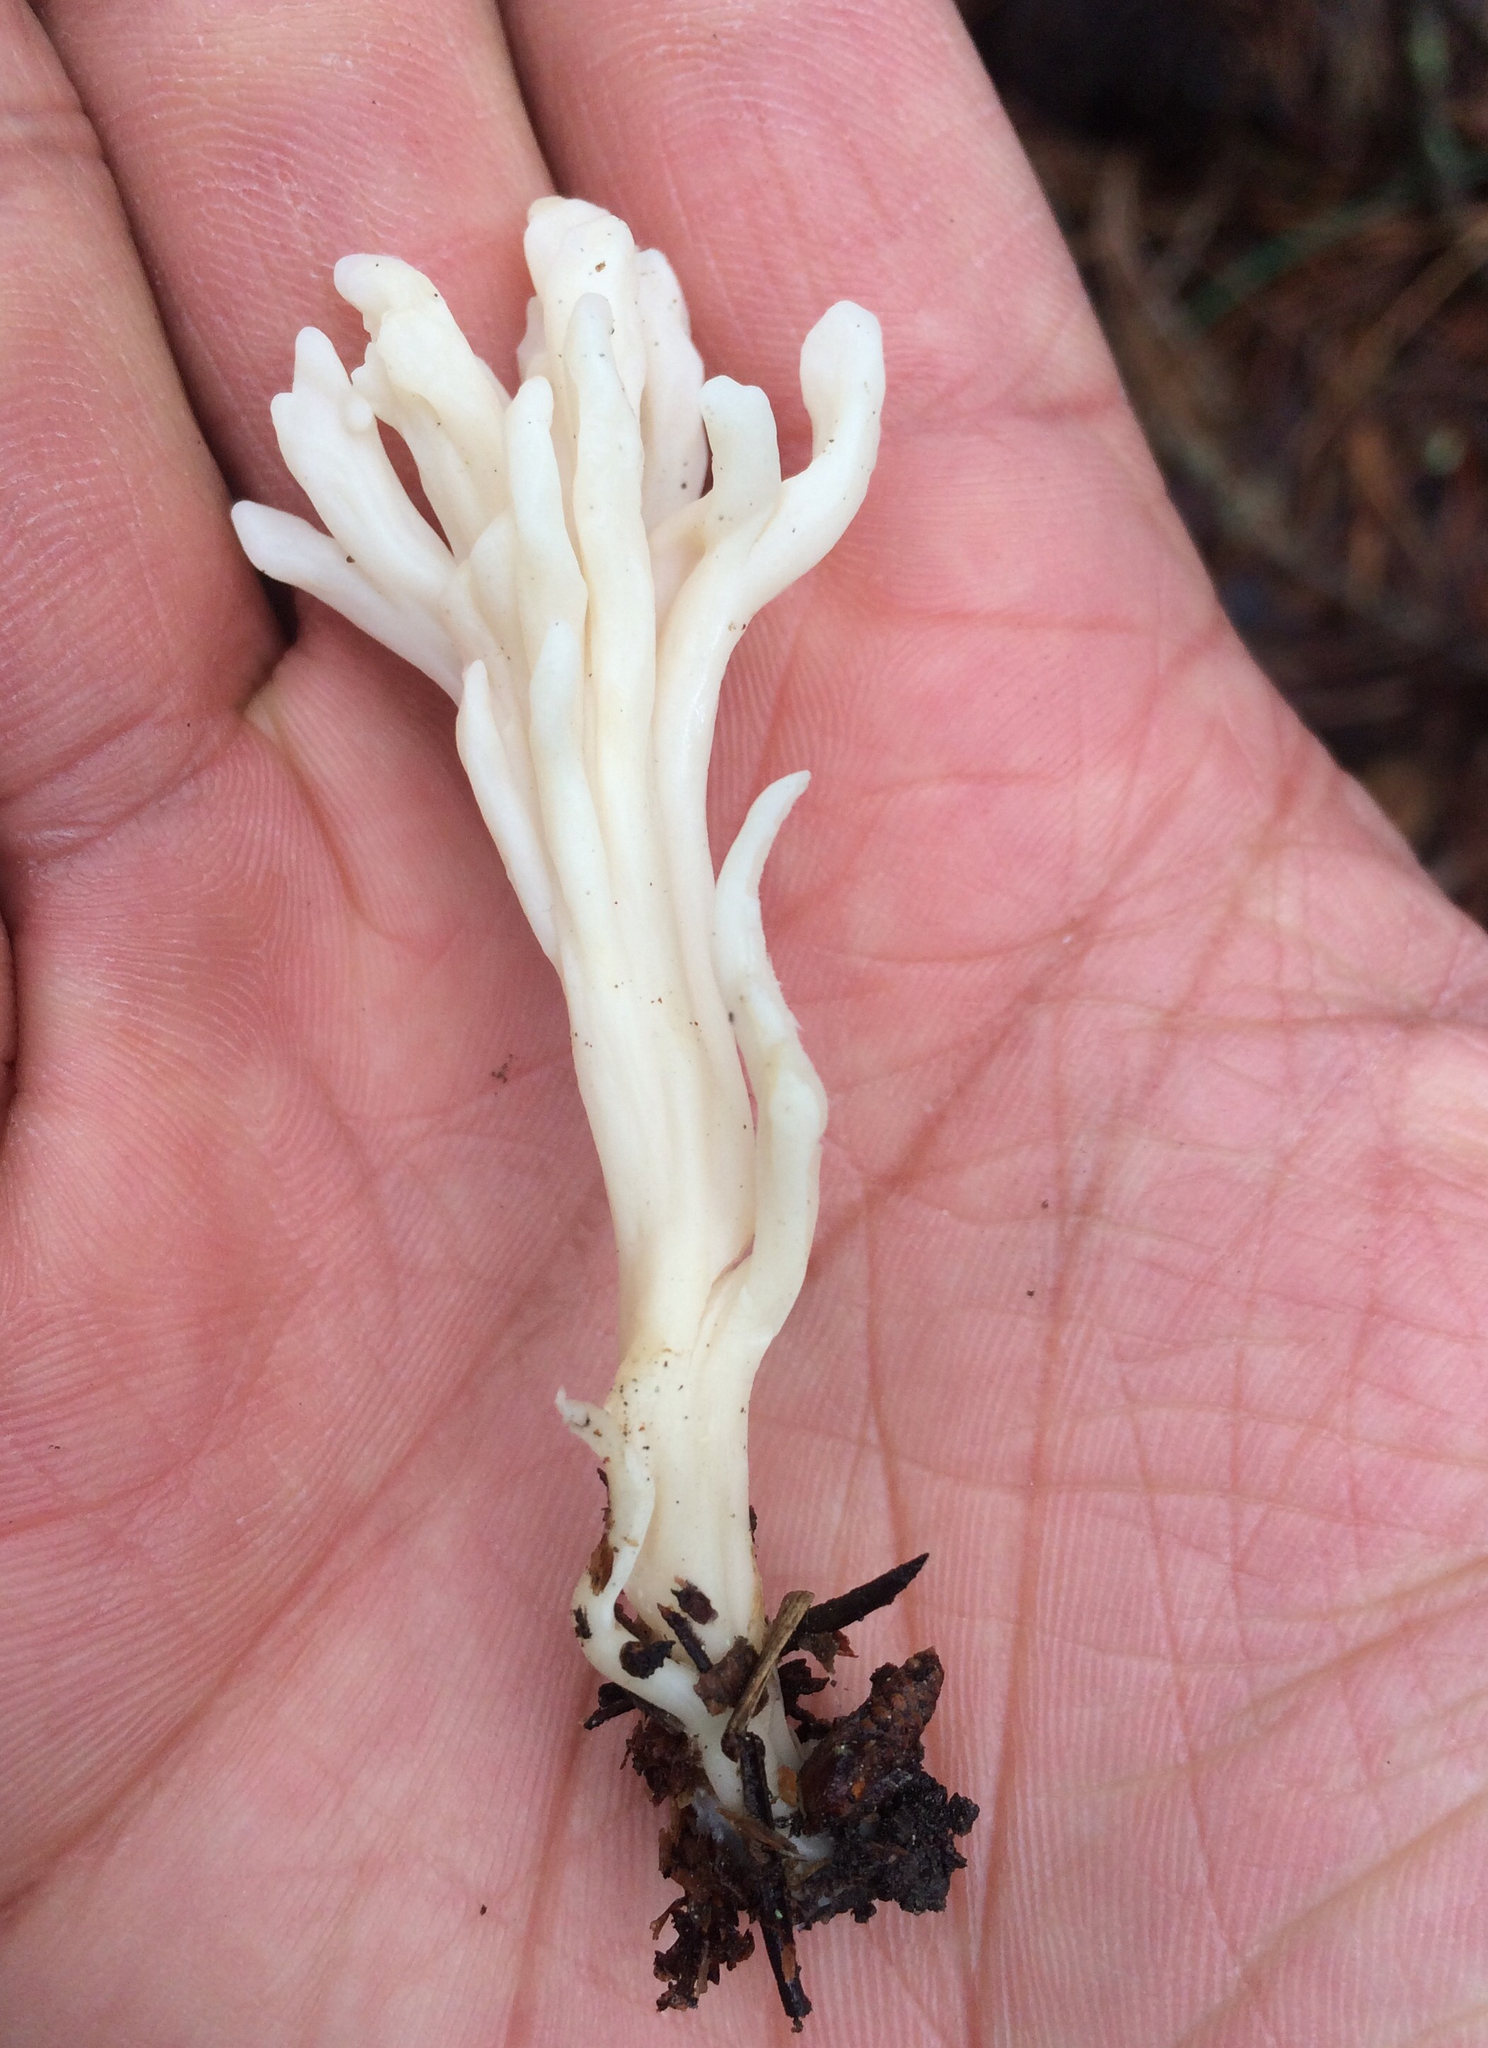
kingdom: Fungi
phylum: Basidiomycota
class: Agaricomycetes
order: Cantharellales
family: Hydnaceae
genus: Clavulina
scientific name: Clavulina coralloides
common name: Crested coral
